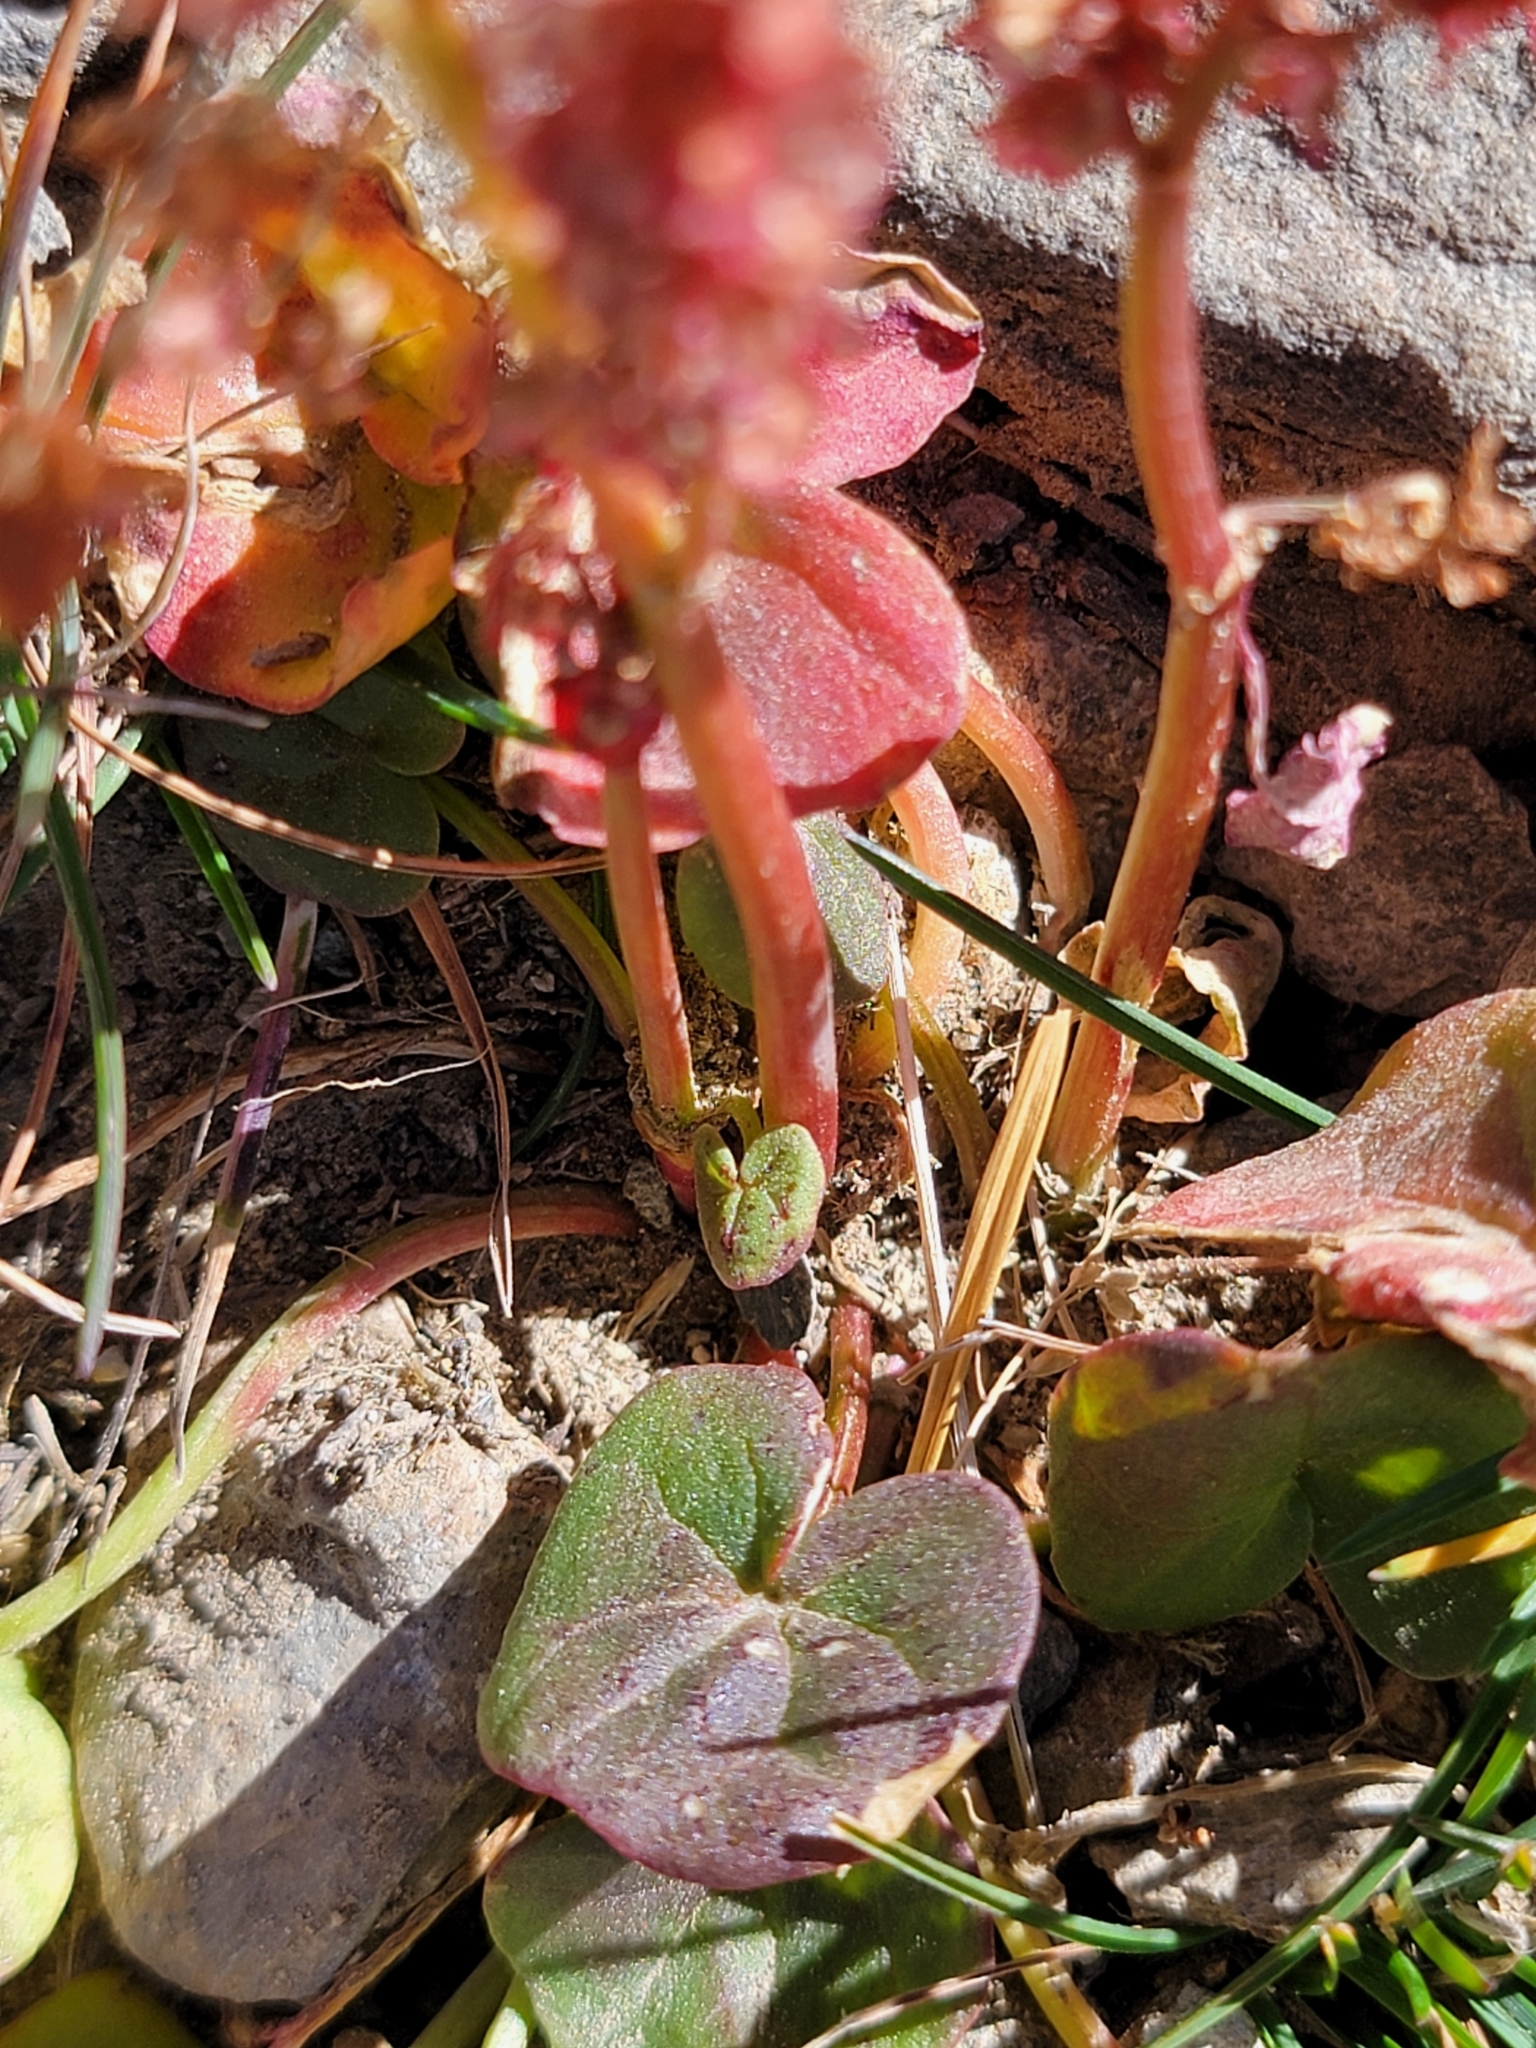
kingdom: Plantae
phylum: Tracheophyta
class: Magnoliopsida
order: Caryophyllales
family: Polygonaceae
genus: Oxyria
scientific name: Oxyria digyna
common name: Alpine mountain-sorrel
